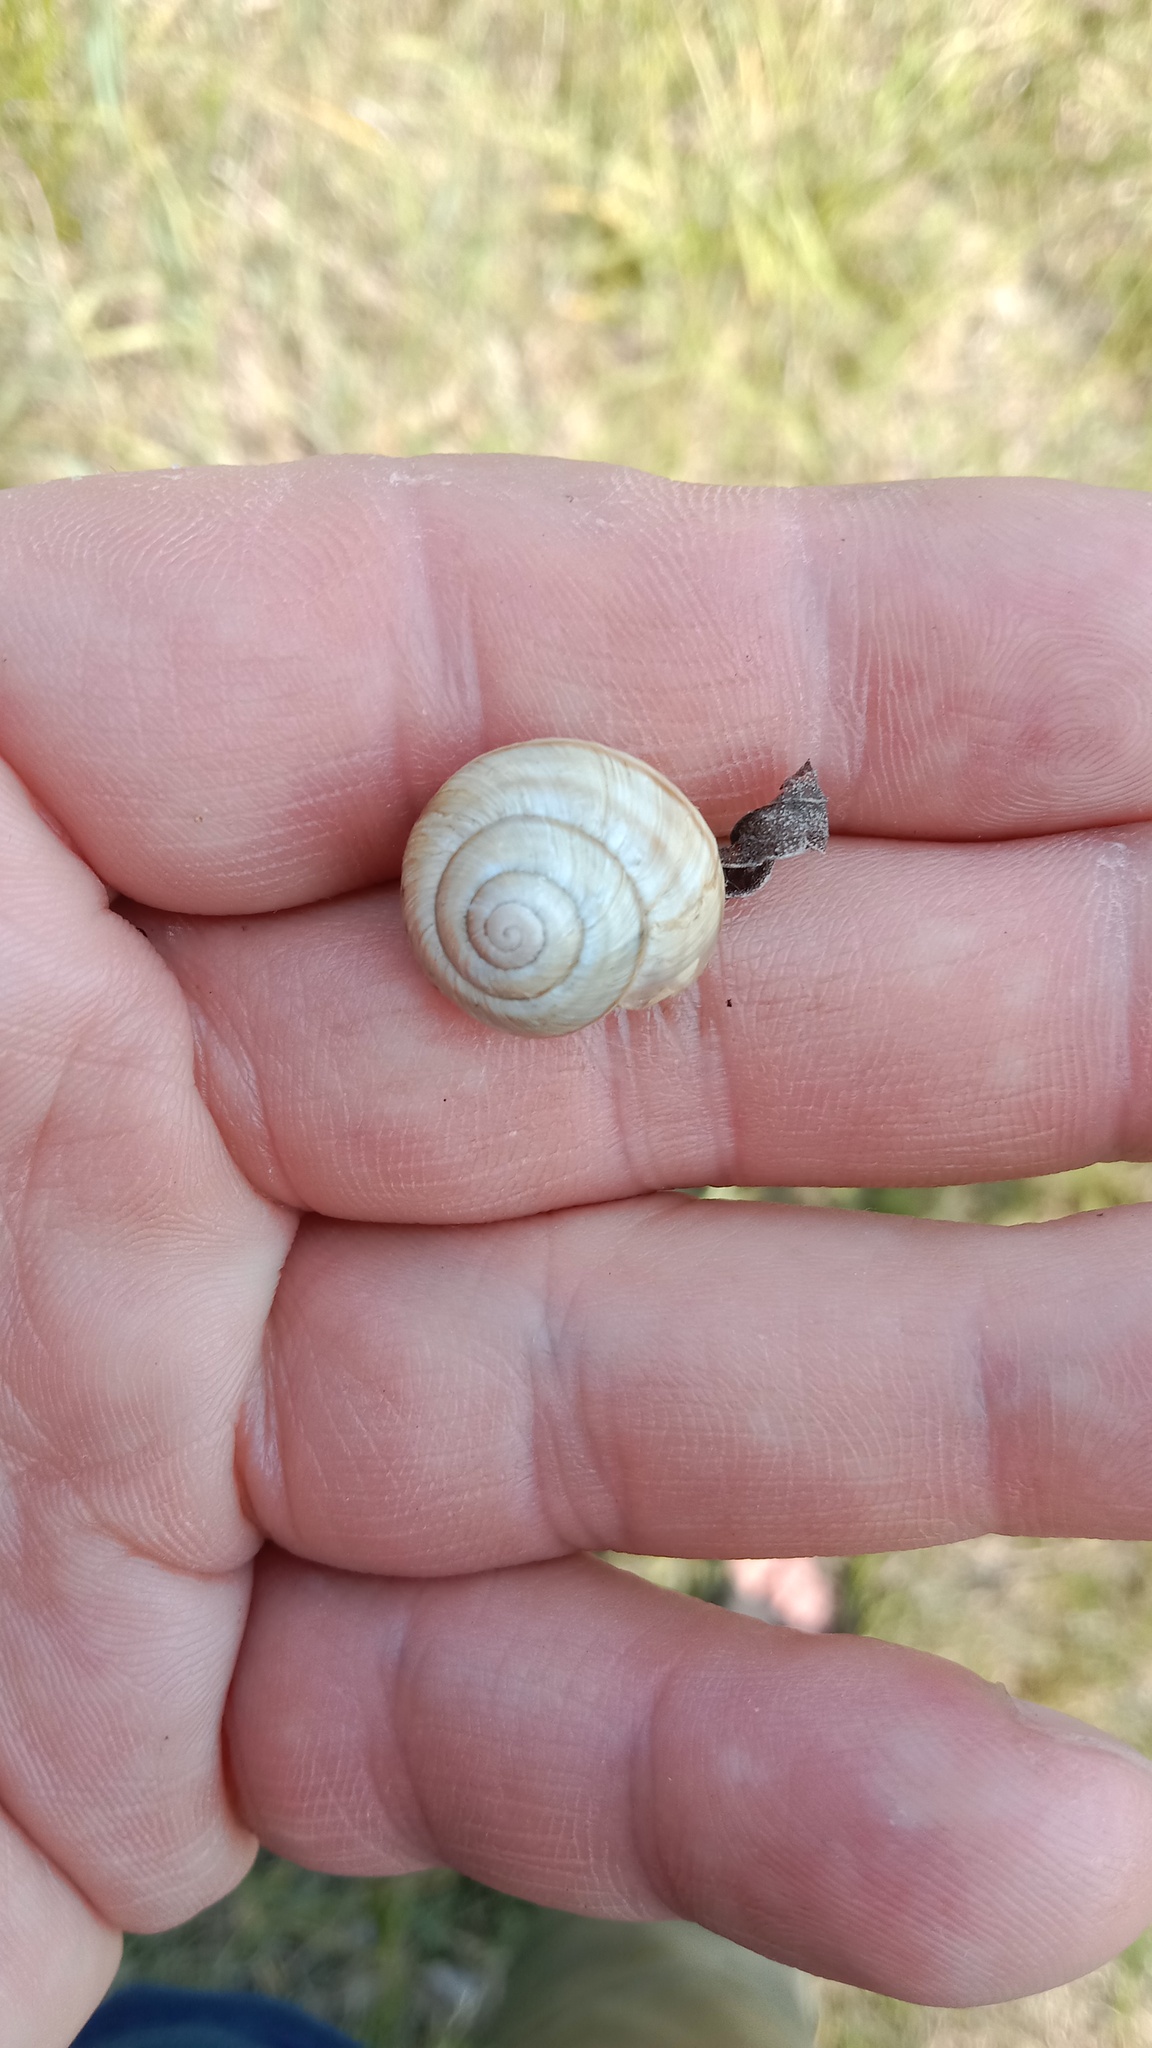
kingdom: Animalia
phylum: Mollusca
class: Gastropoda
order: Stylommatophora
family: Helicidae
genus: Caucasotachea
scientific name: Caucasotachea vindobonensis
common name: European helicid land snail
